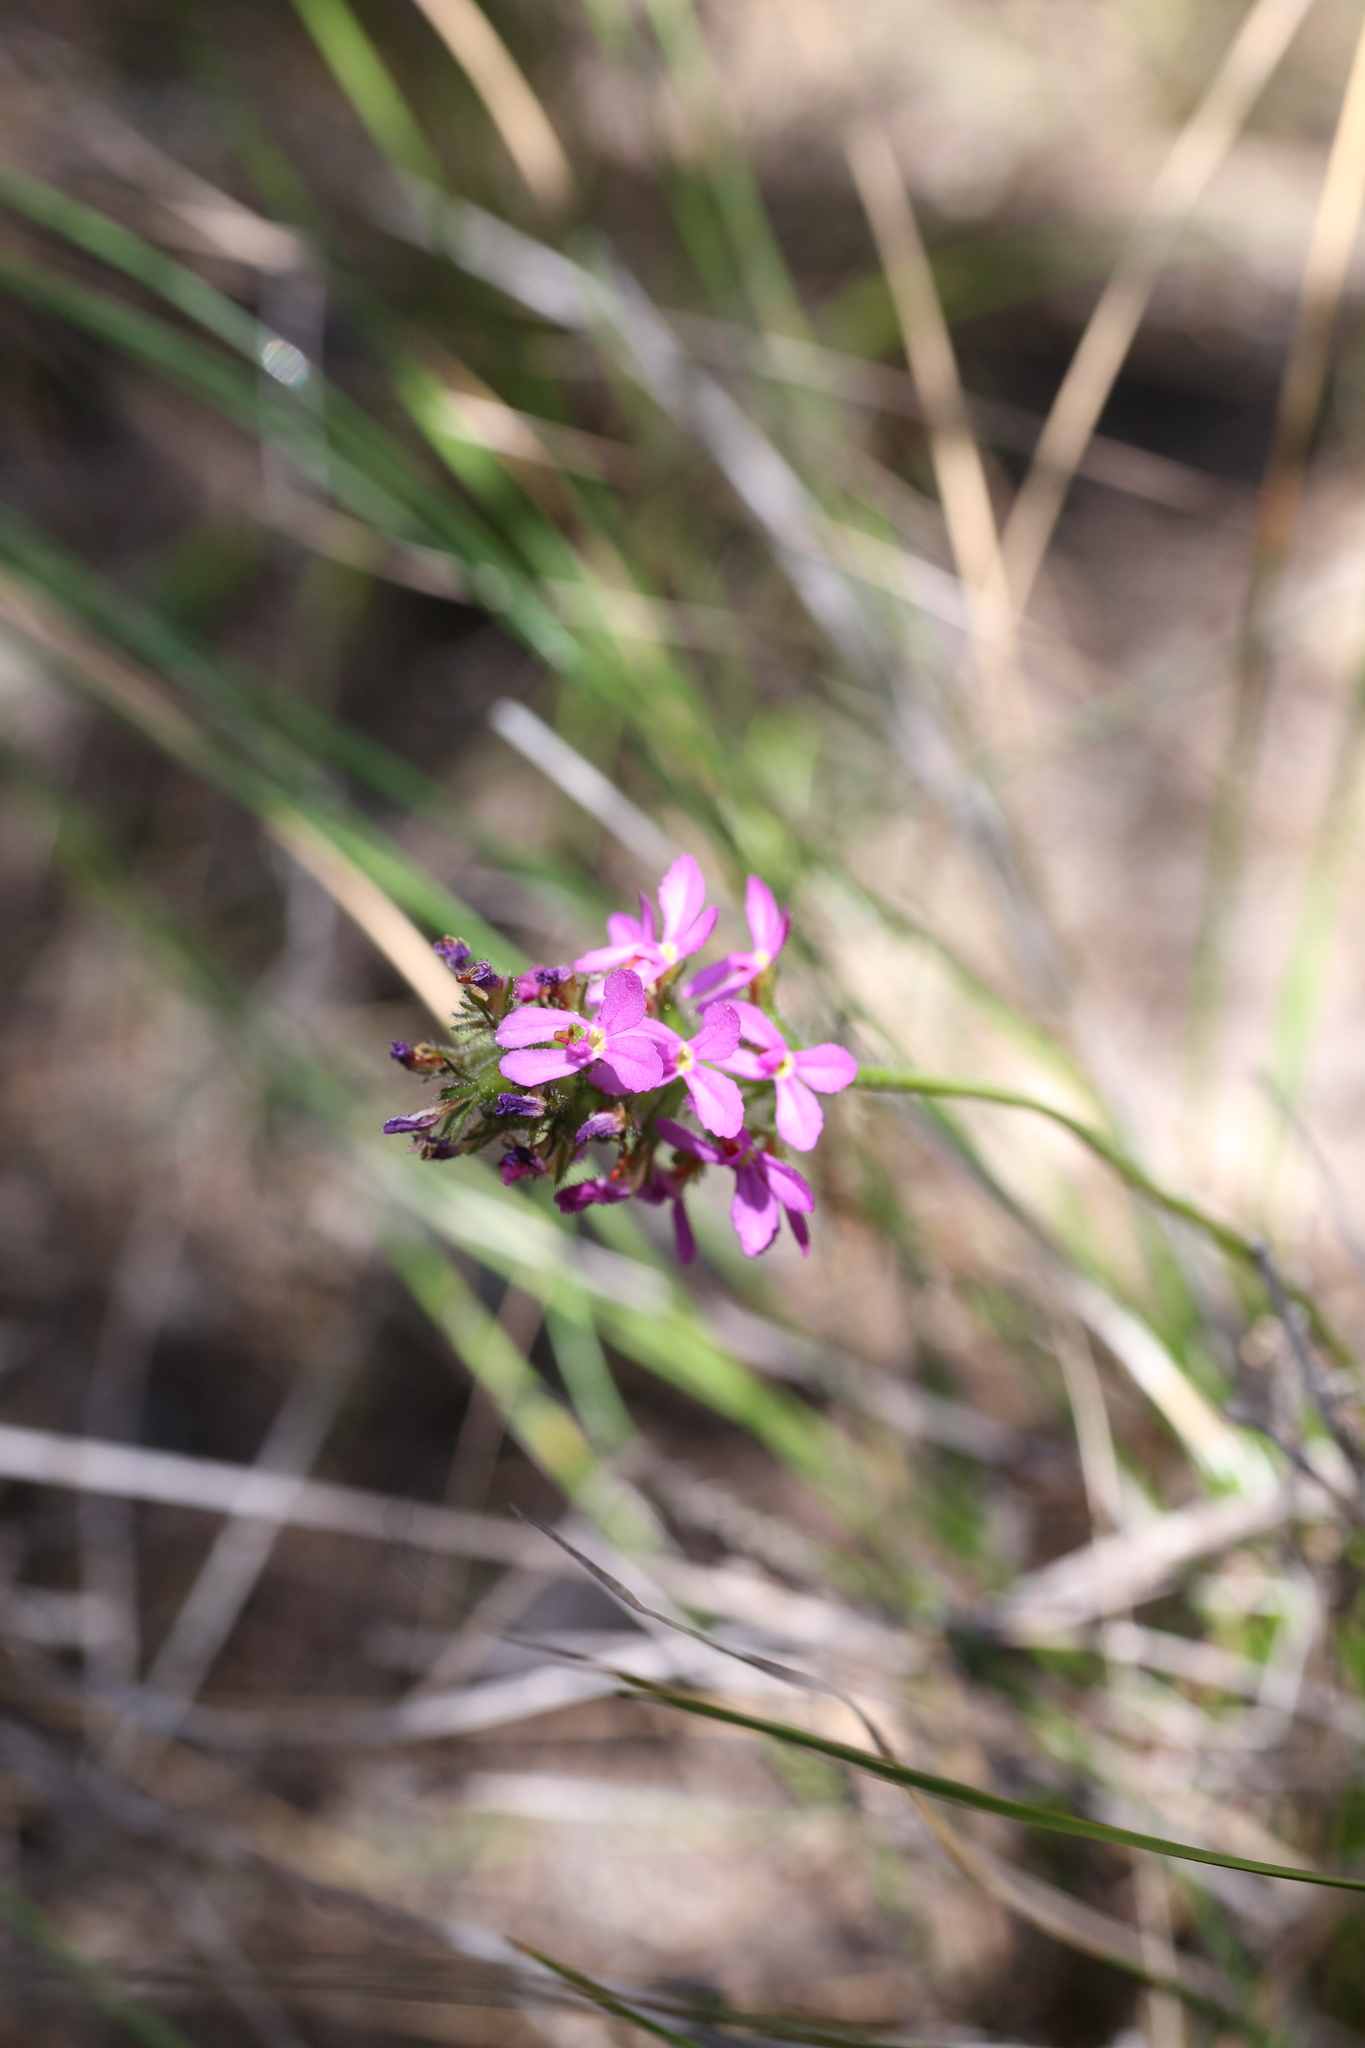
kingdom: Plantae
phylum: Tracheophyta
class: Magnoliopsida
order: Asterales
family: Stylidiaceae
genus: Stylidium
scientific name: Stylidium hirsutum
